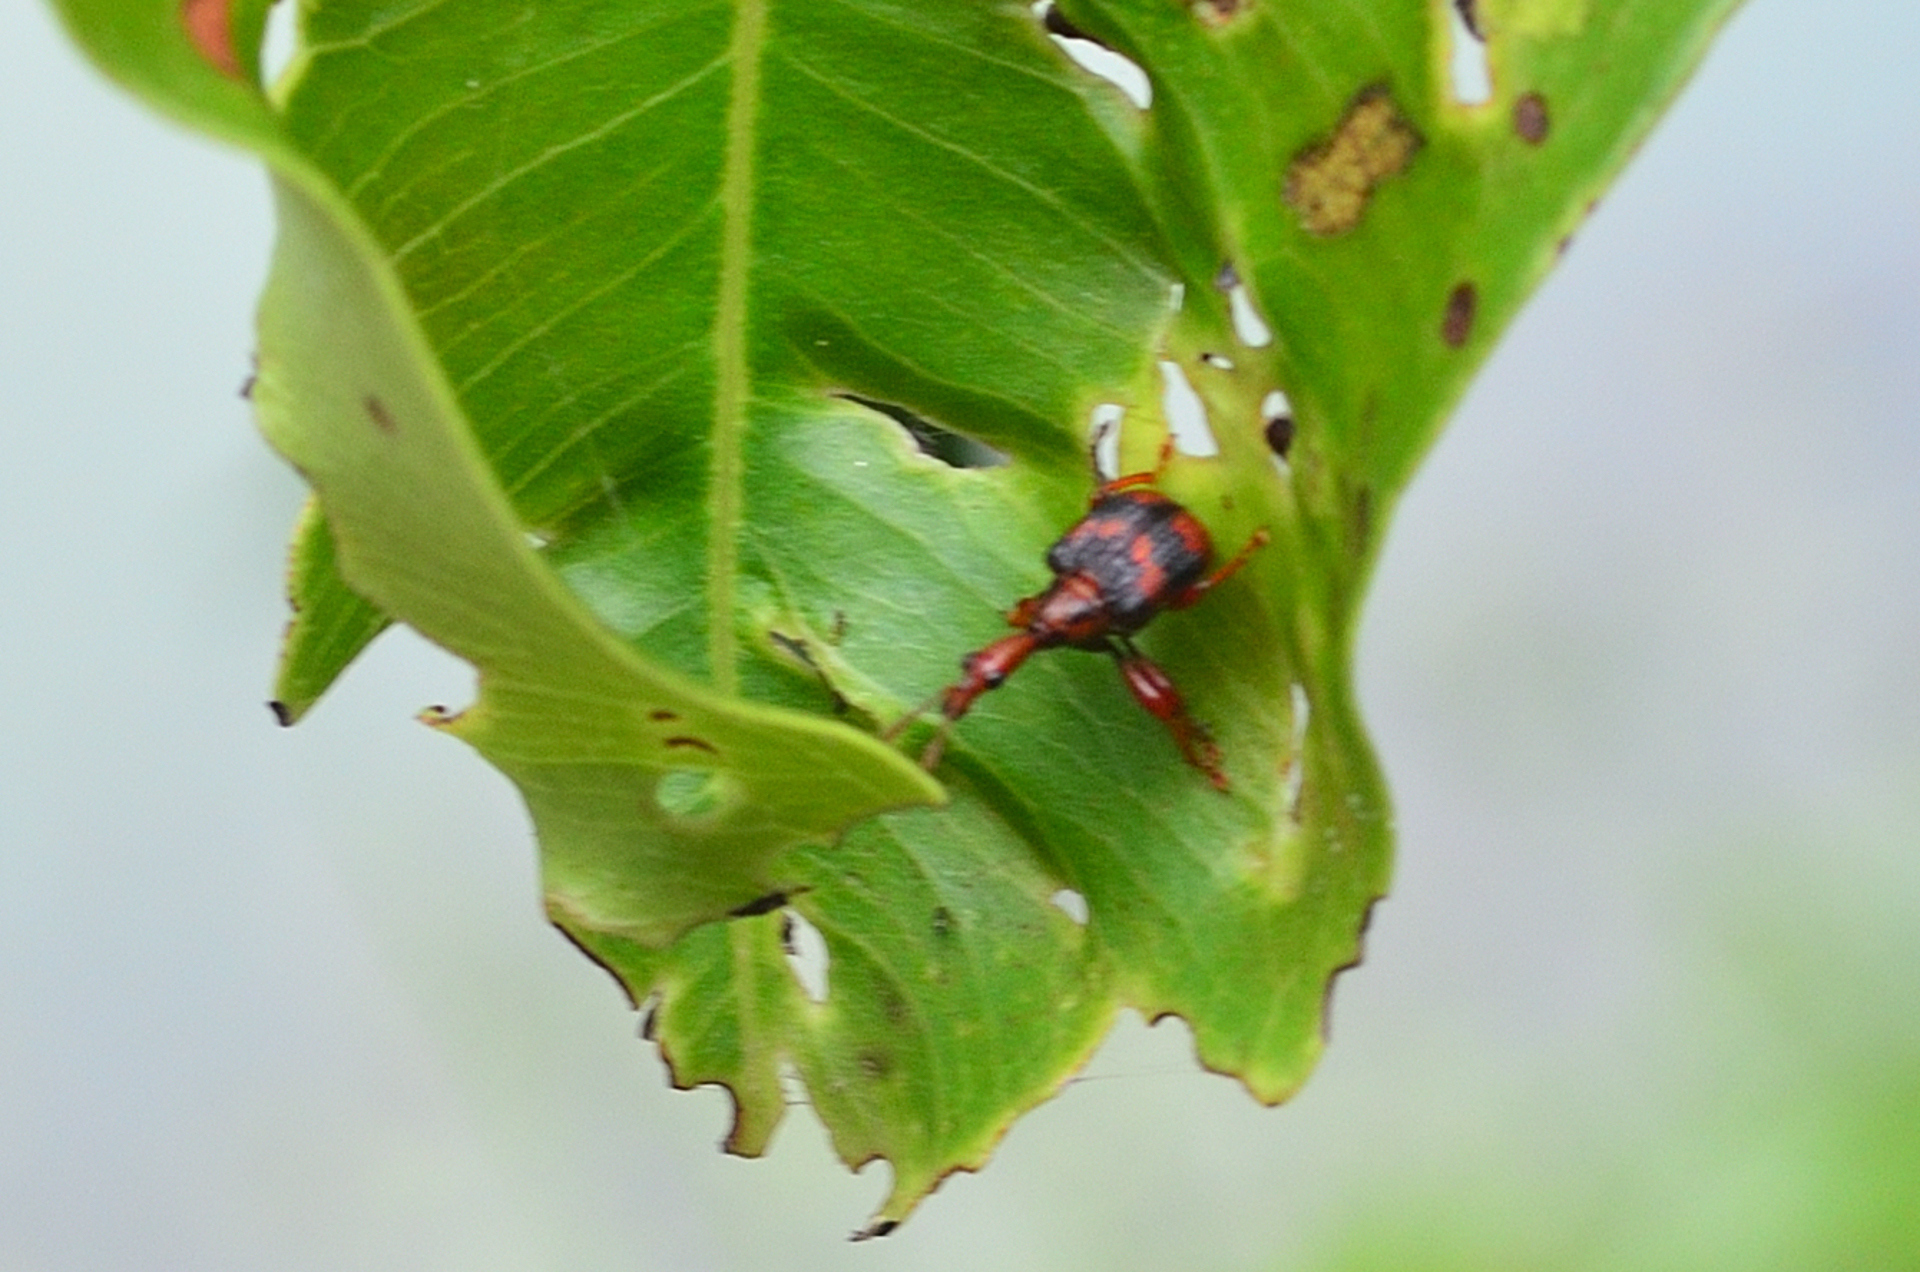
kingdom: Animalia
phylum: Arthropoda
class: Insecta
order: Coleoptera
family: Attelabidae
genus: Strigapoderus
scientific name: Strigapoderus tranquebaricus
